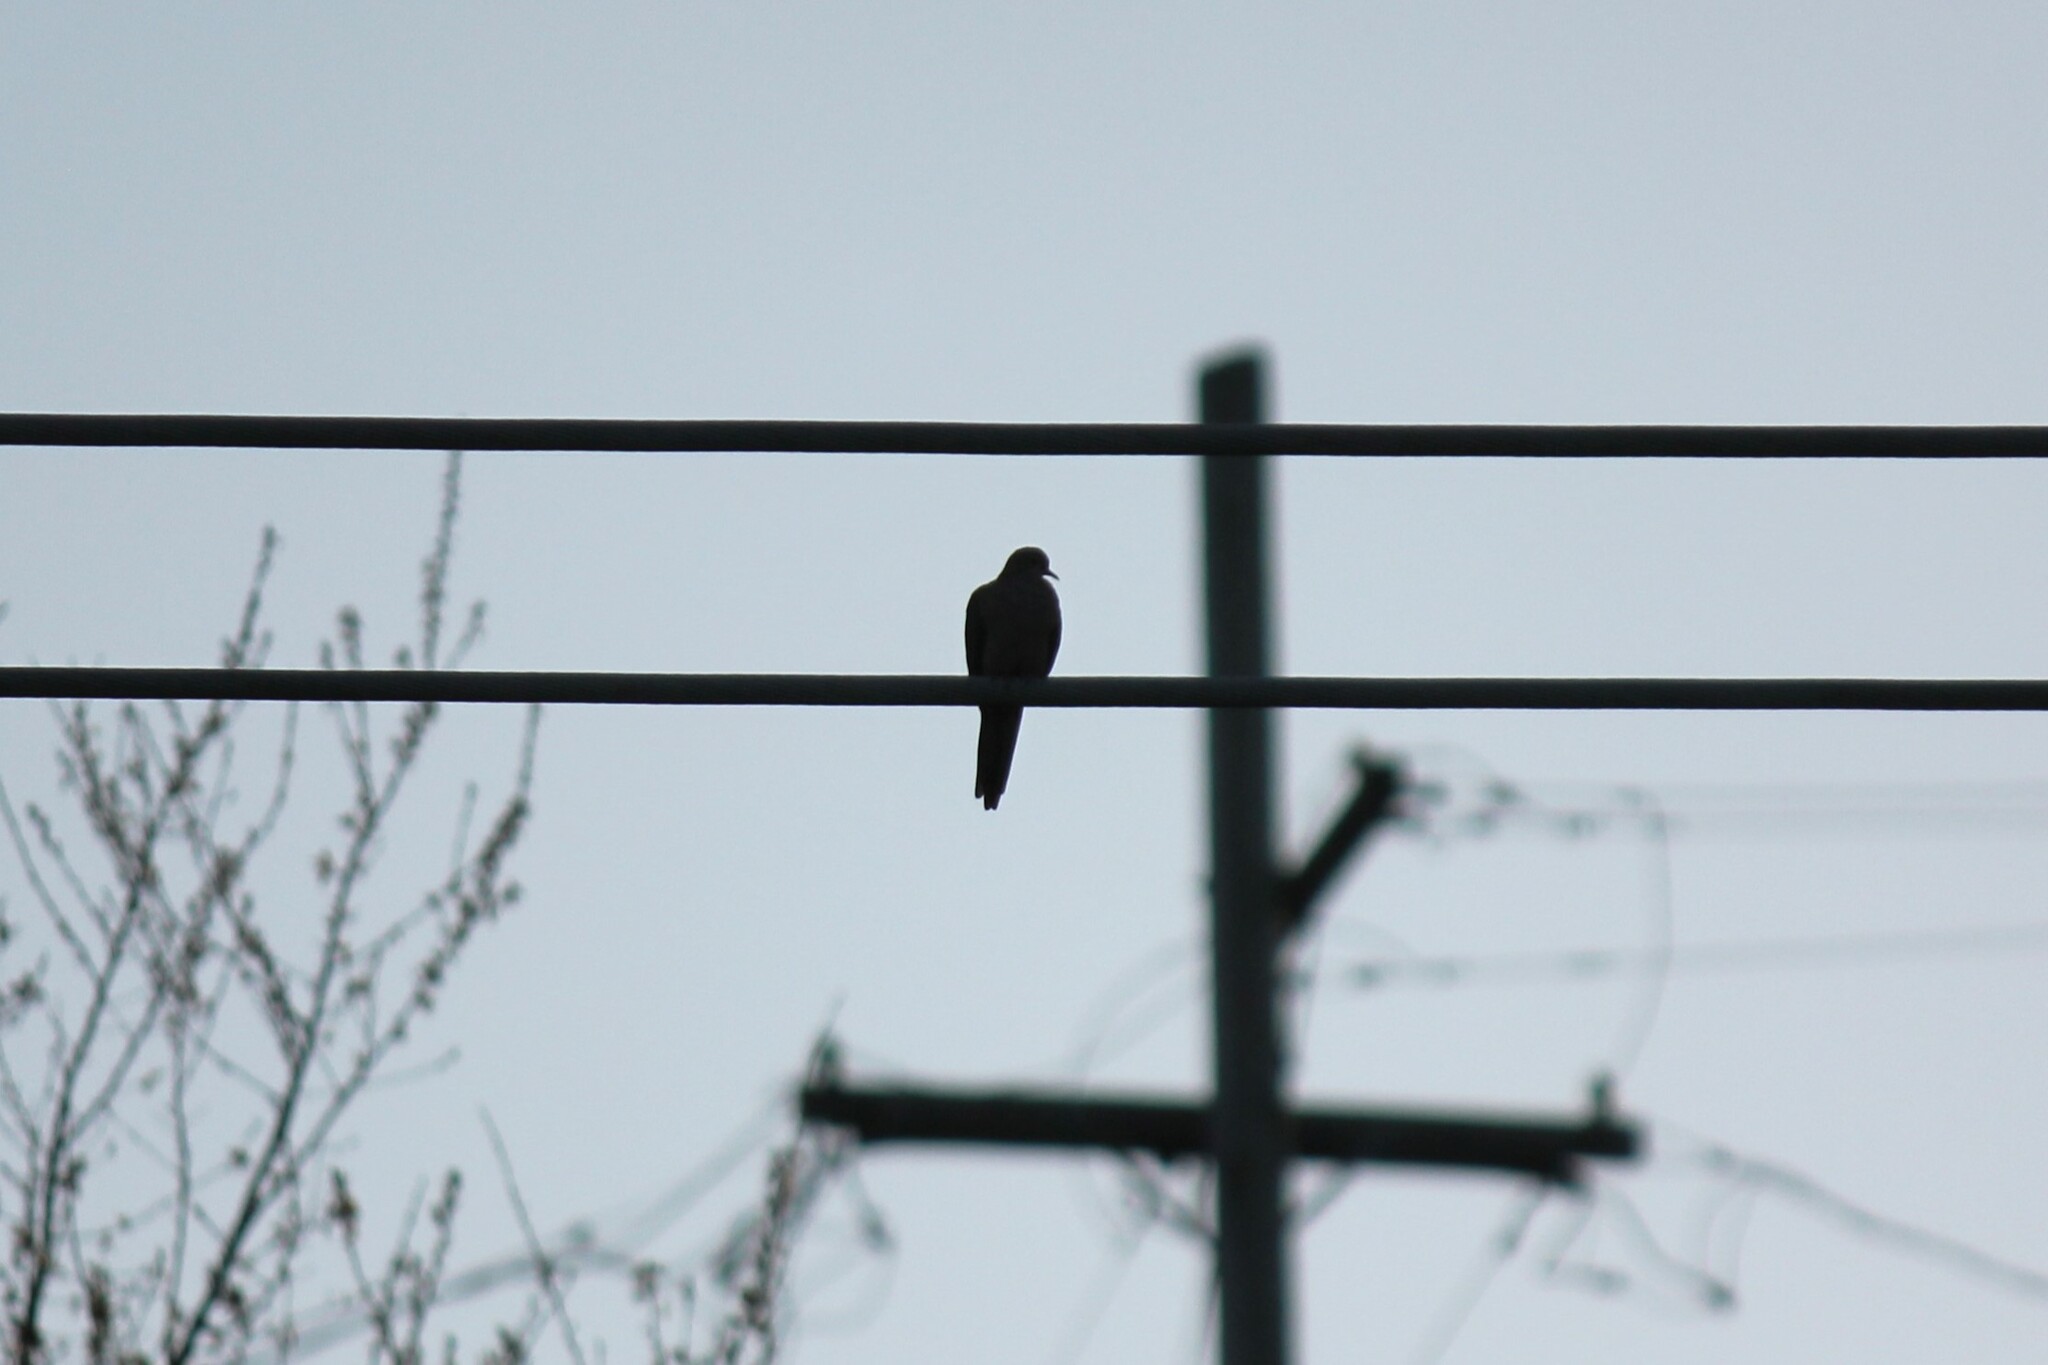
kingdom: Animalia
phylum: Chordata
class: Aves
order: Columbiformes
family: Columbidae
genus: Zenaida
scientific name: Zenaida macroura
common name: Mourning dove
